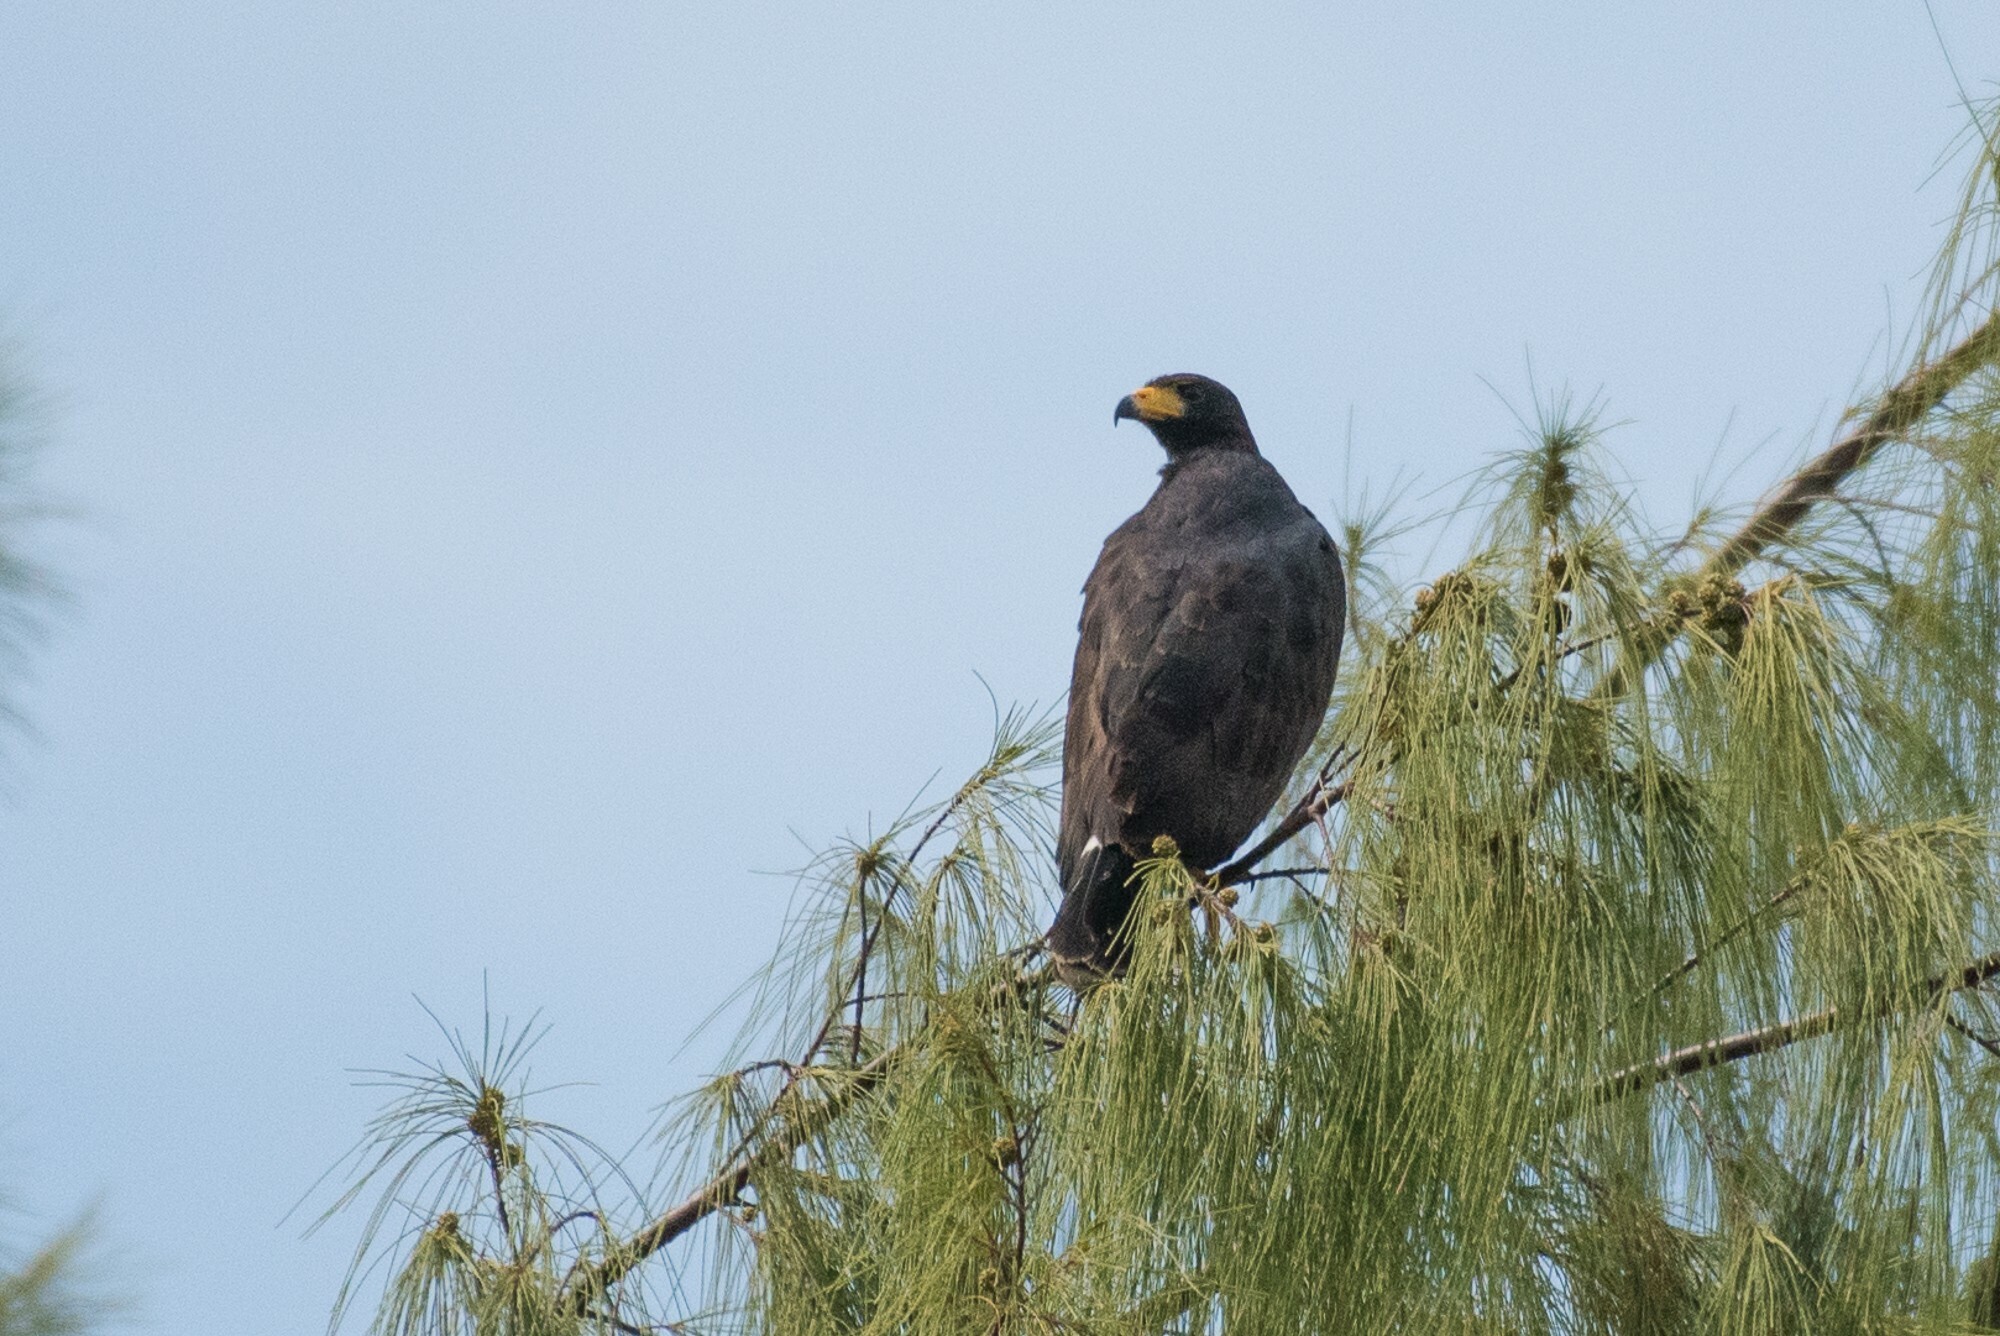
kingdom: Animalia
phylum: Chordata
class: Aves
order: Accipitriformes
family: Accipitridae
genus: Buteogallus
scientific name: Buteogallus anthracinus
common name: Common black hawk
